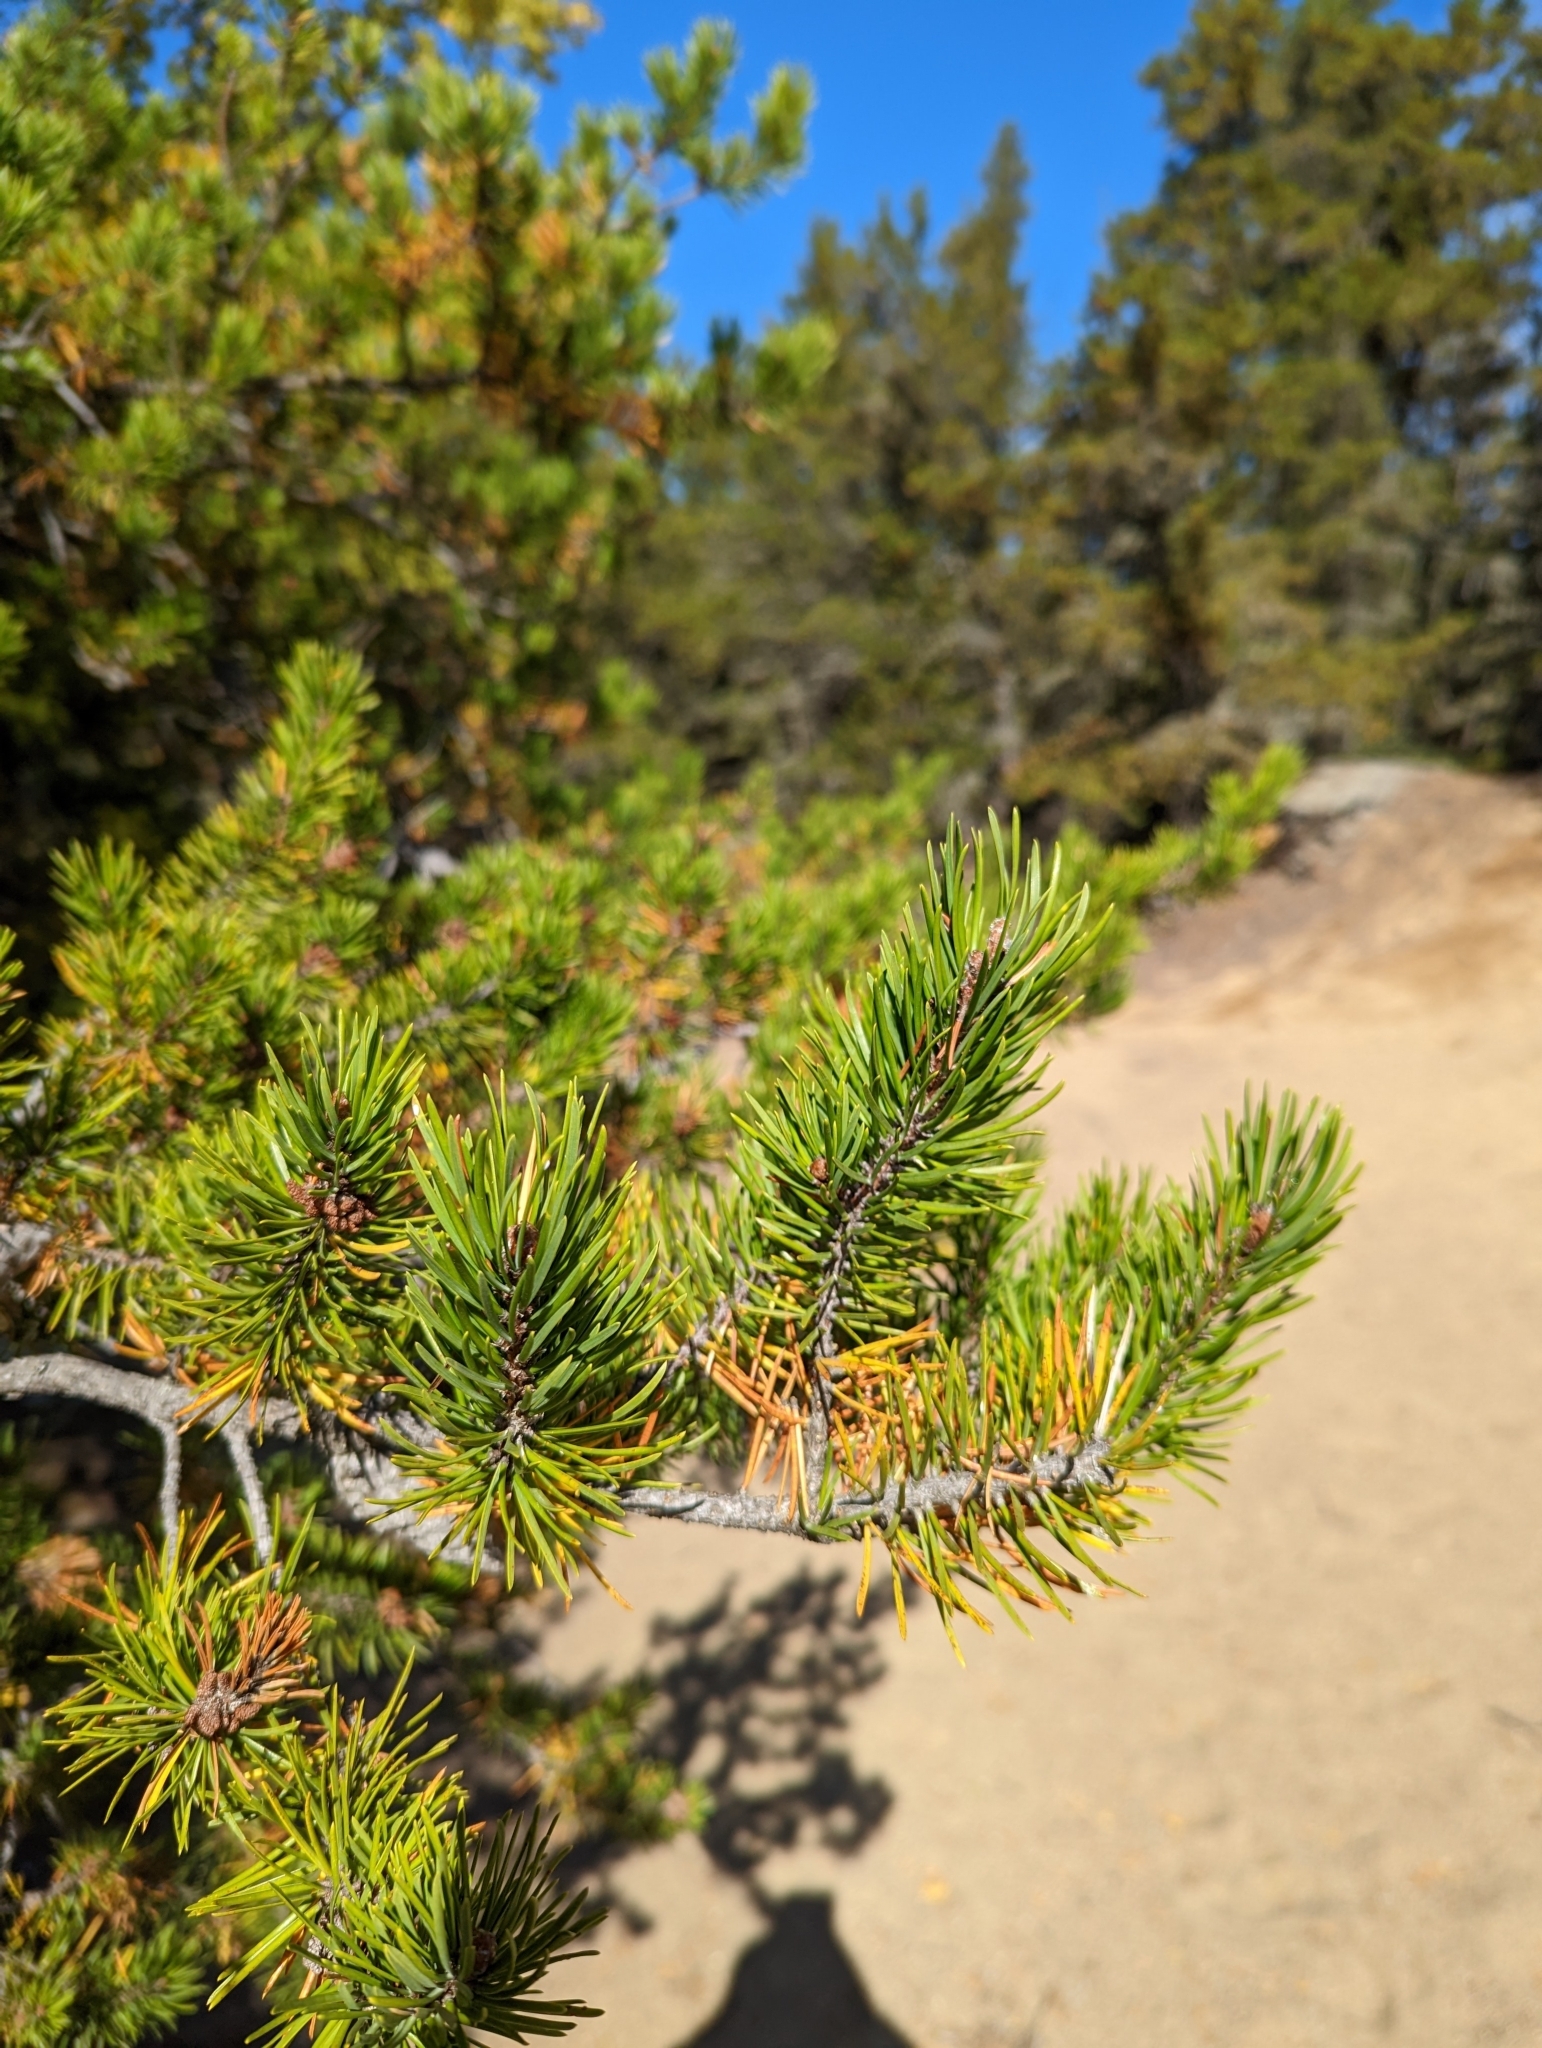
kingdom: Plantae
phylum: Tracheophyta
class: Pinopsida
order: Pinales
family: Pinaceae
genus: Pinus
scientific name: Pinus banksiana
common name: Jack pine
